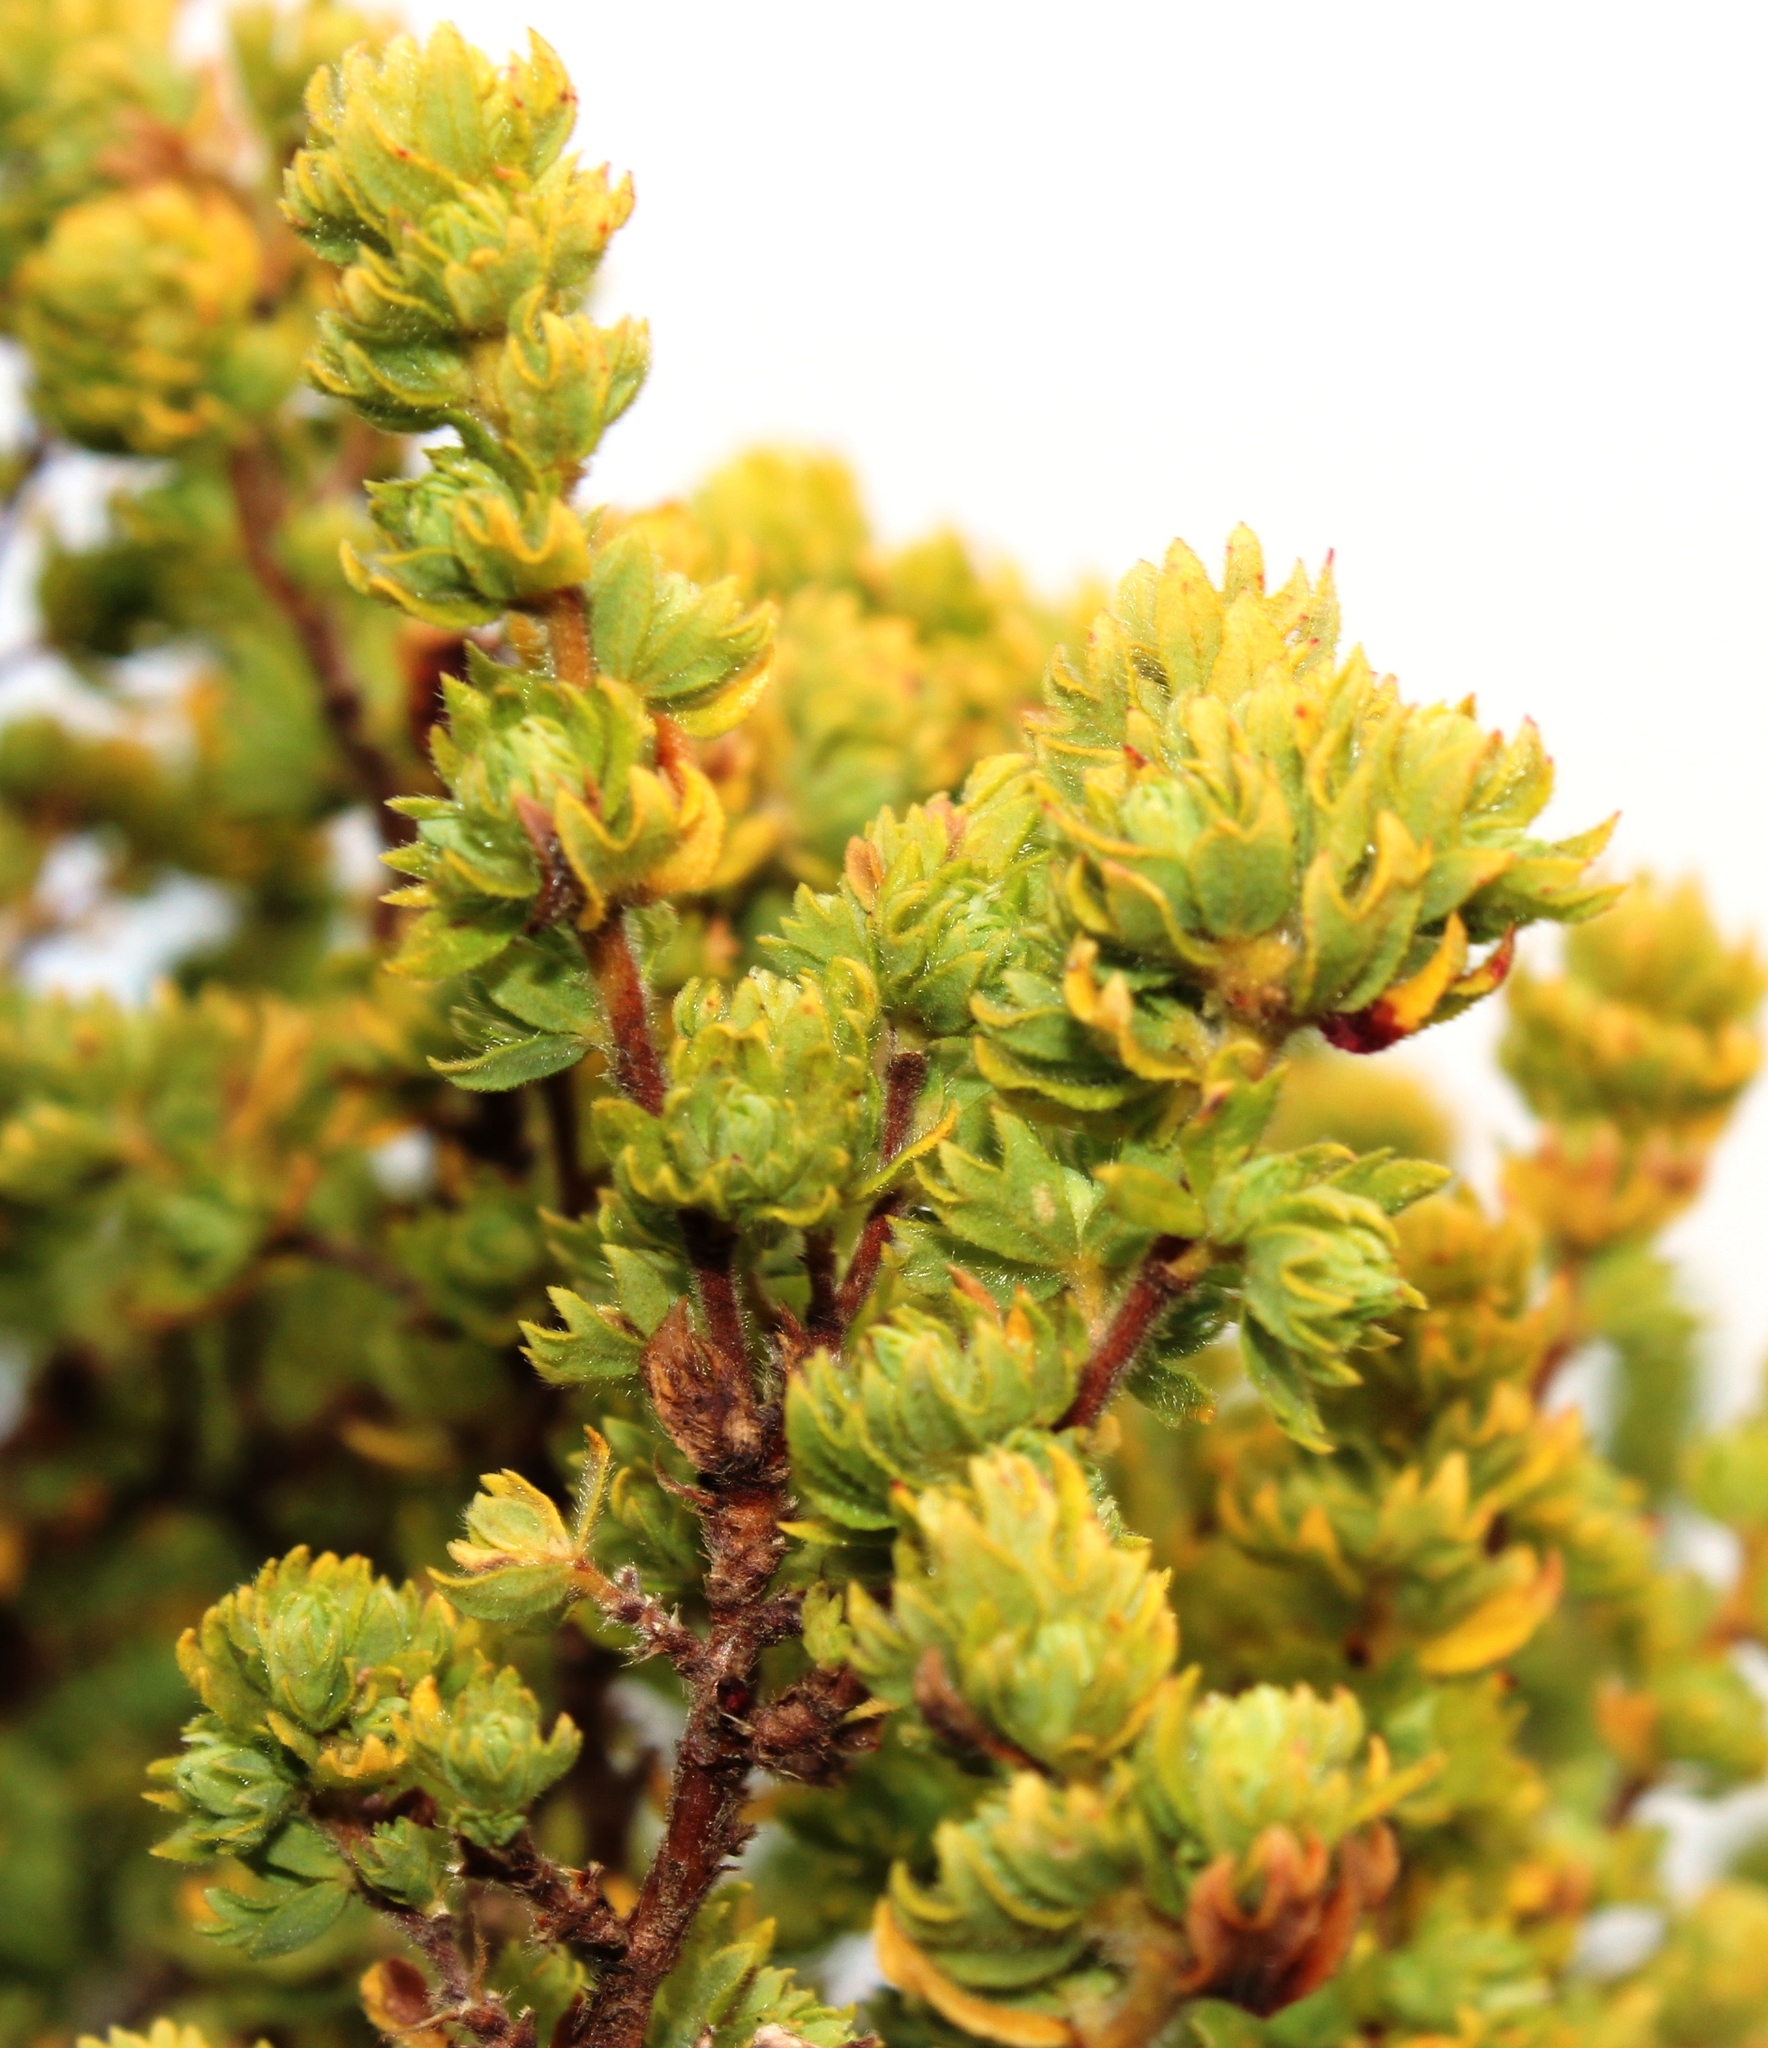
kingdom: Plantae
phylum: Tracheophyta
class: Magnoliopsida
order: Rosales
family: Rosaceae
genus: Cliffortia
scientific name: Cliffortia polygonifolia
